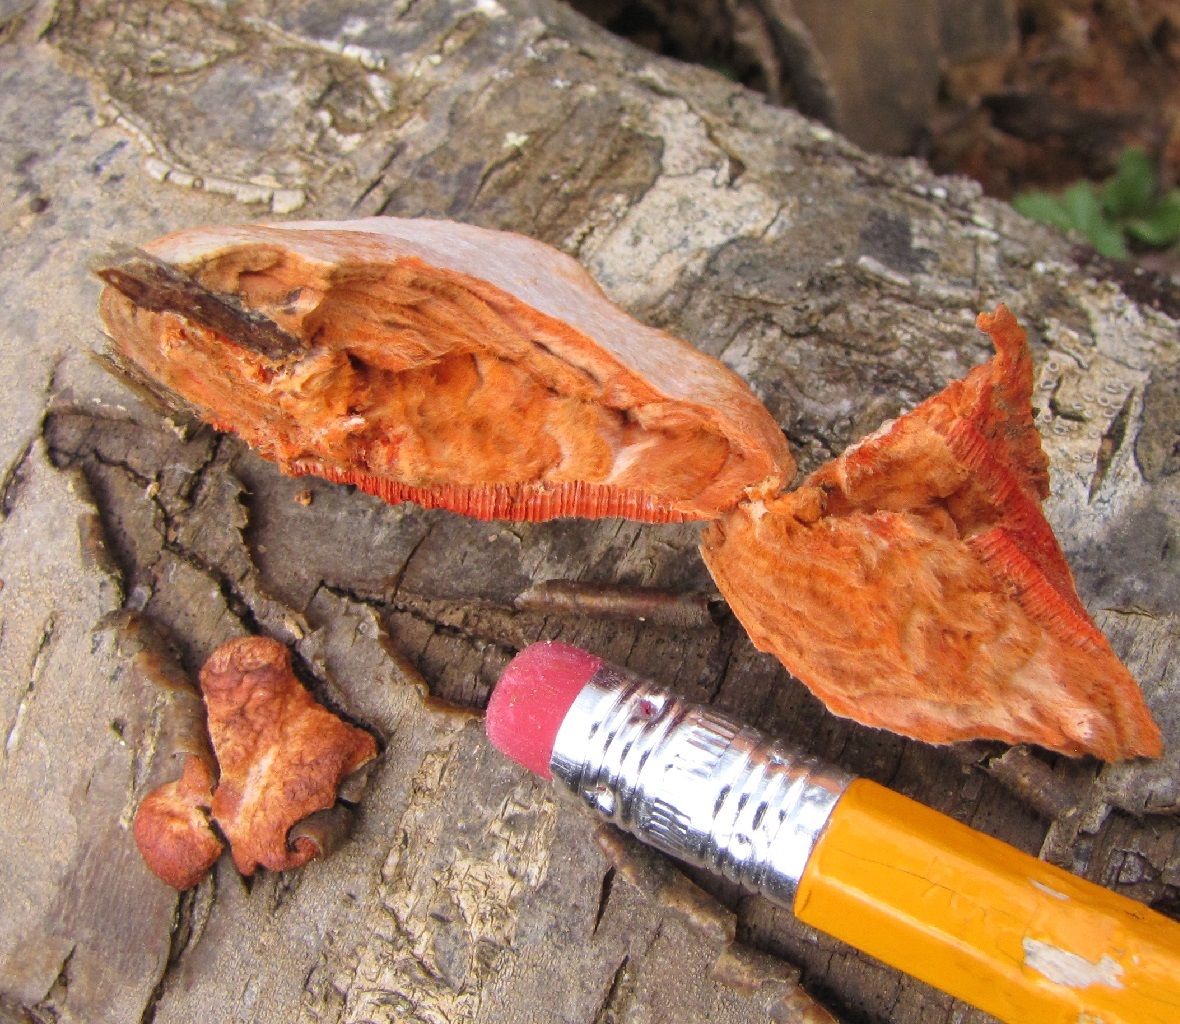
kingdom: Fungi
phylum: Basidiomycota
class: Agaricomycetes
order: Polyporales
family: Polyporaceae
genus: Trametes
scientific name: Trametes cinnabarina
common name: Northern cinnabar polypore
